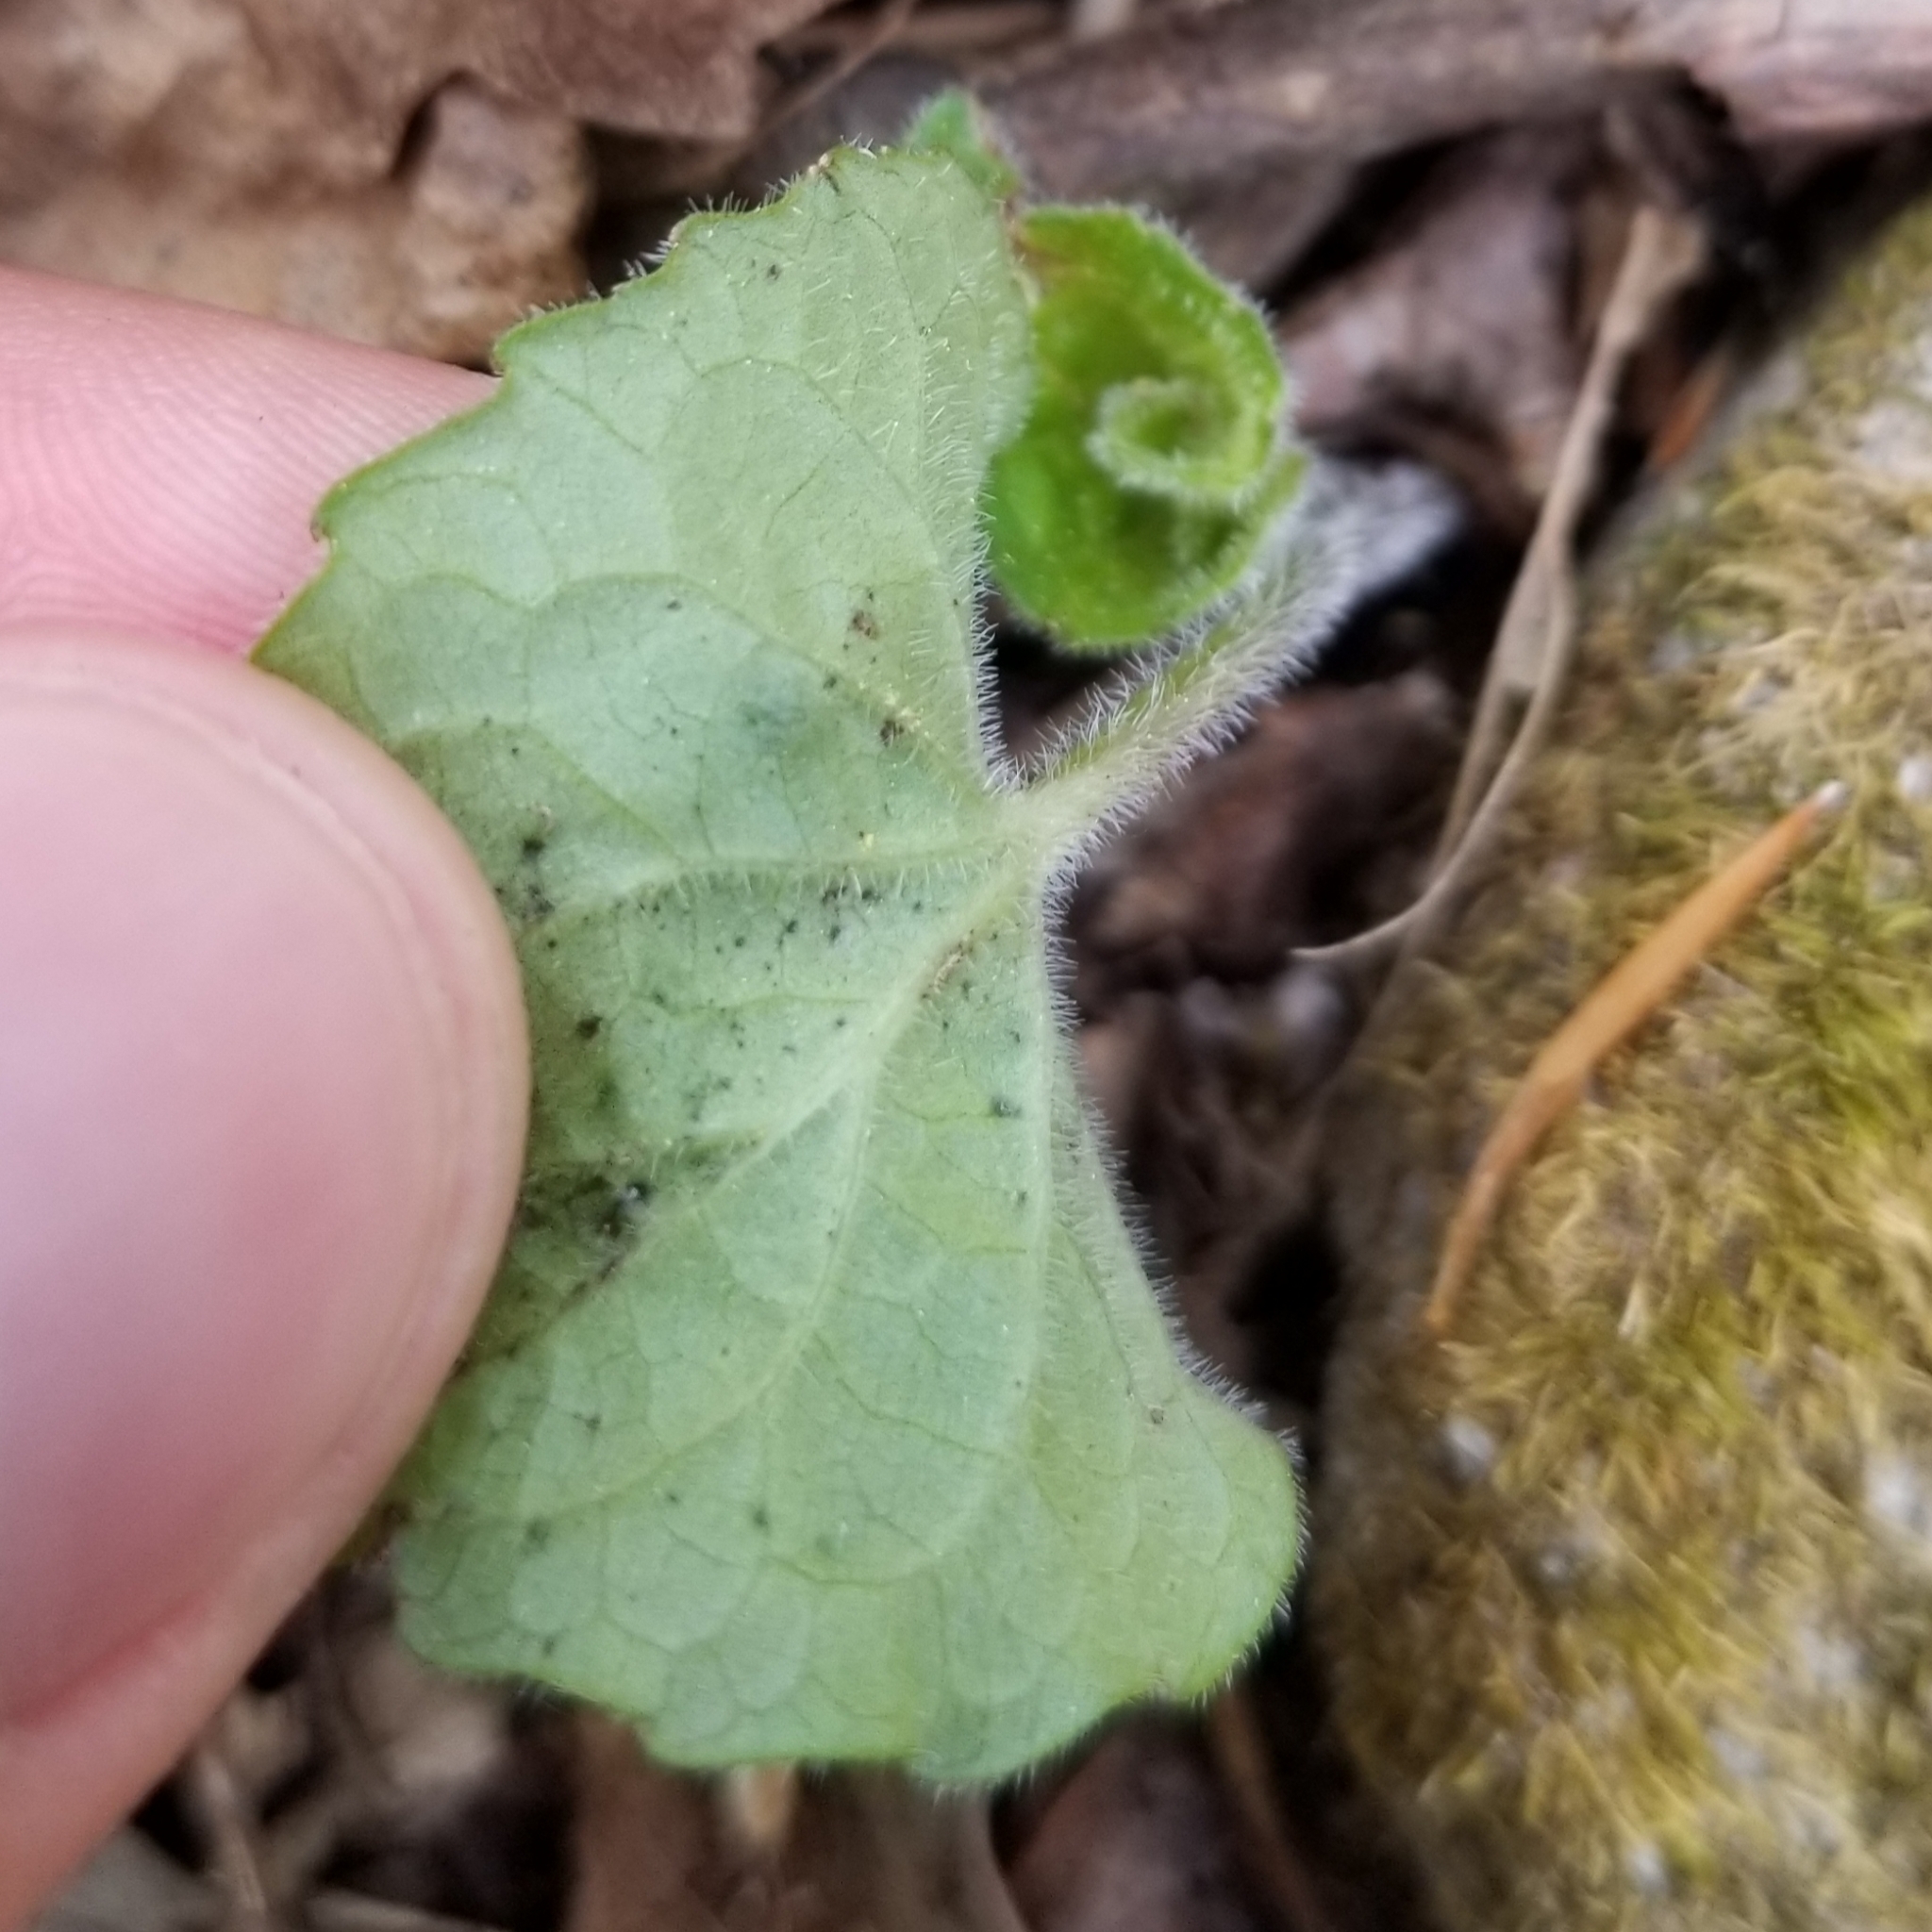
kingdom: Plantae
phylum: Tracheophyta
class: Magnoliopsida
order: Malpighiales
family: Violaceae
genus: Viola
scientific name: Viola sororia
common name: Dooryard violet
